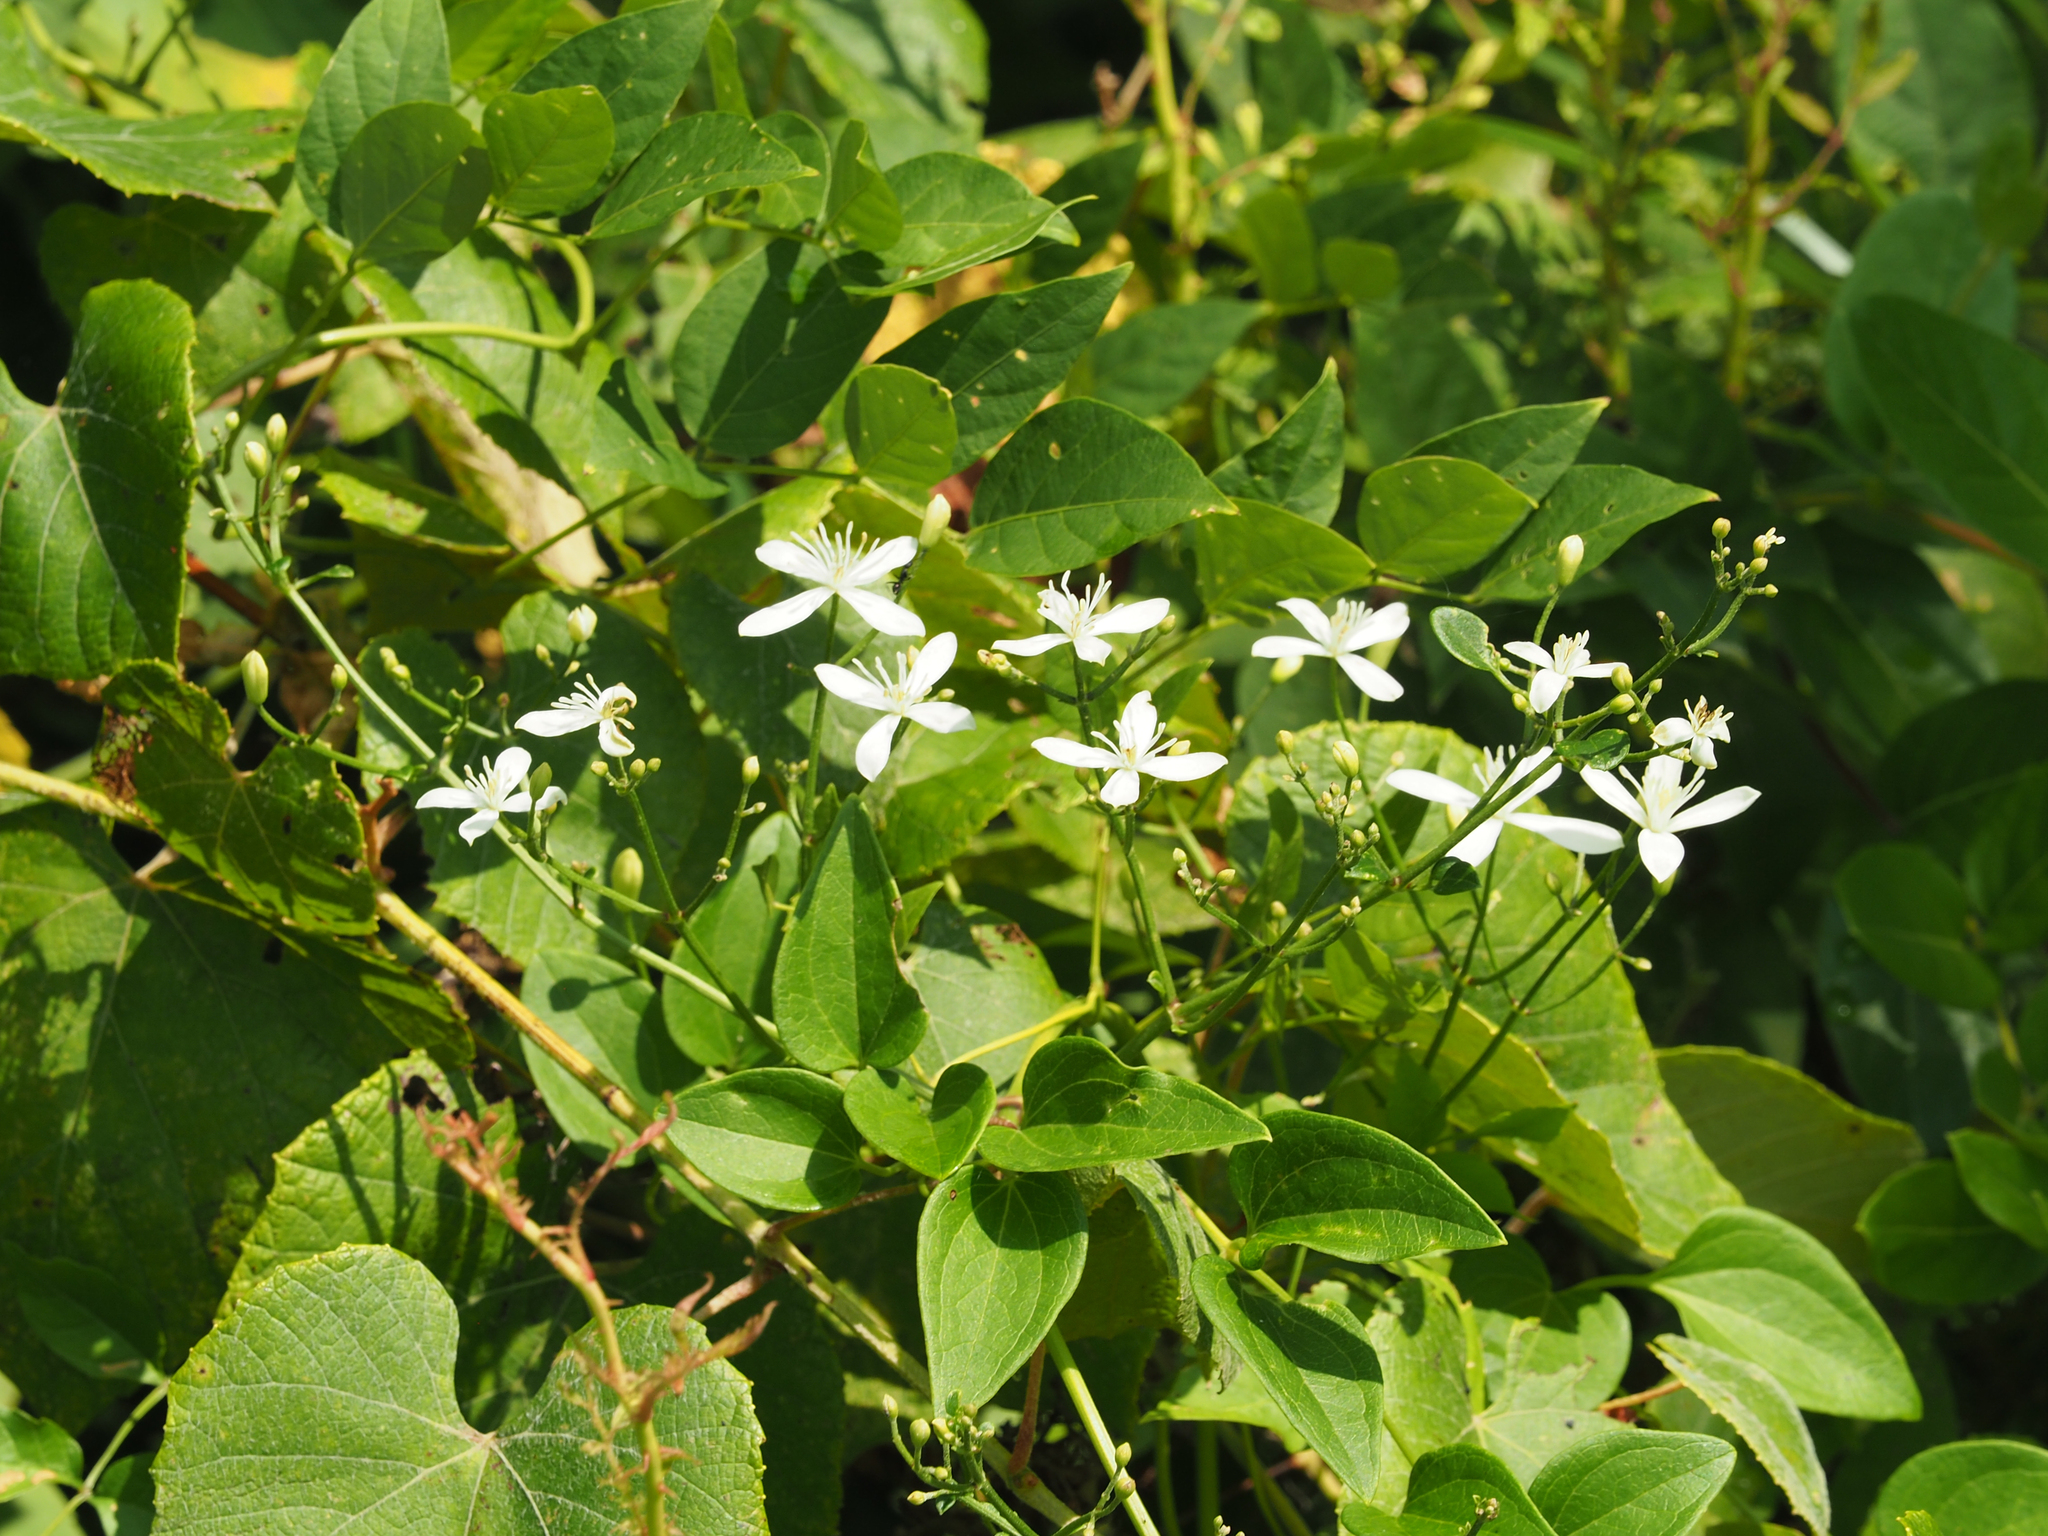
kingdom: Plantae
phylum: Tracheophyta
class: Magnoliopsida
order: Ranunculales
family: Ranunculaceae
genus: Clematis
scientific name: Clematis terniflora
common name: Sweet autumn clematis
